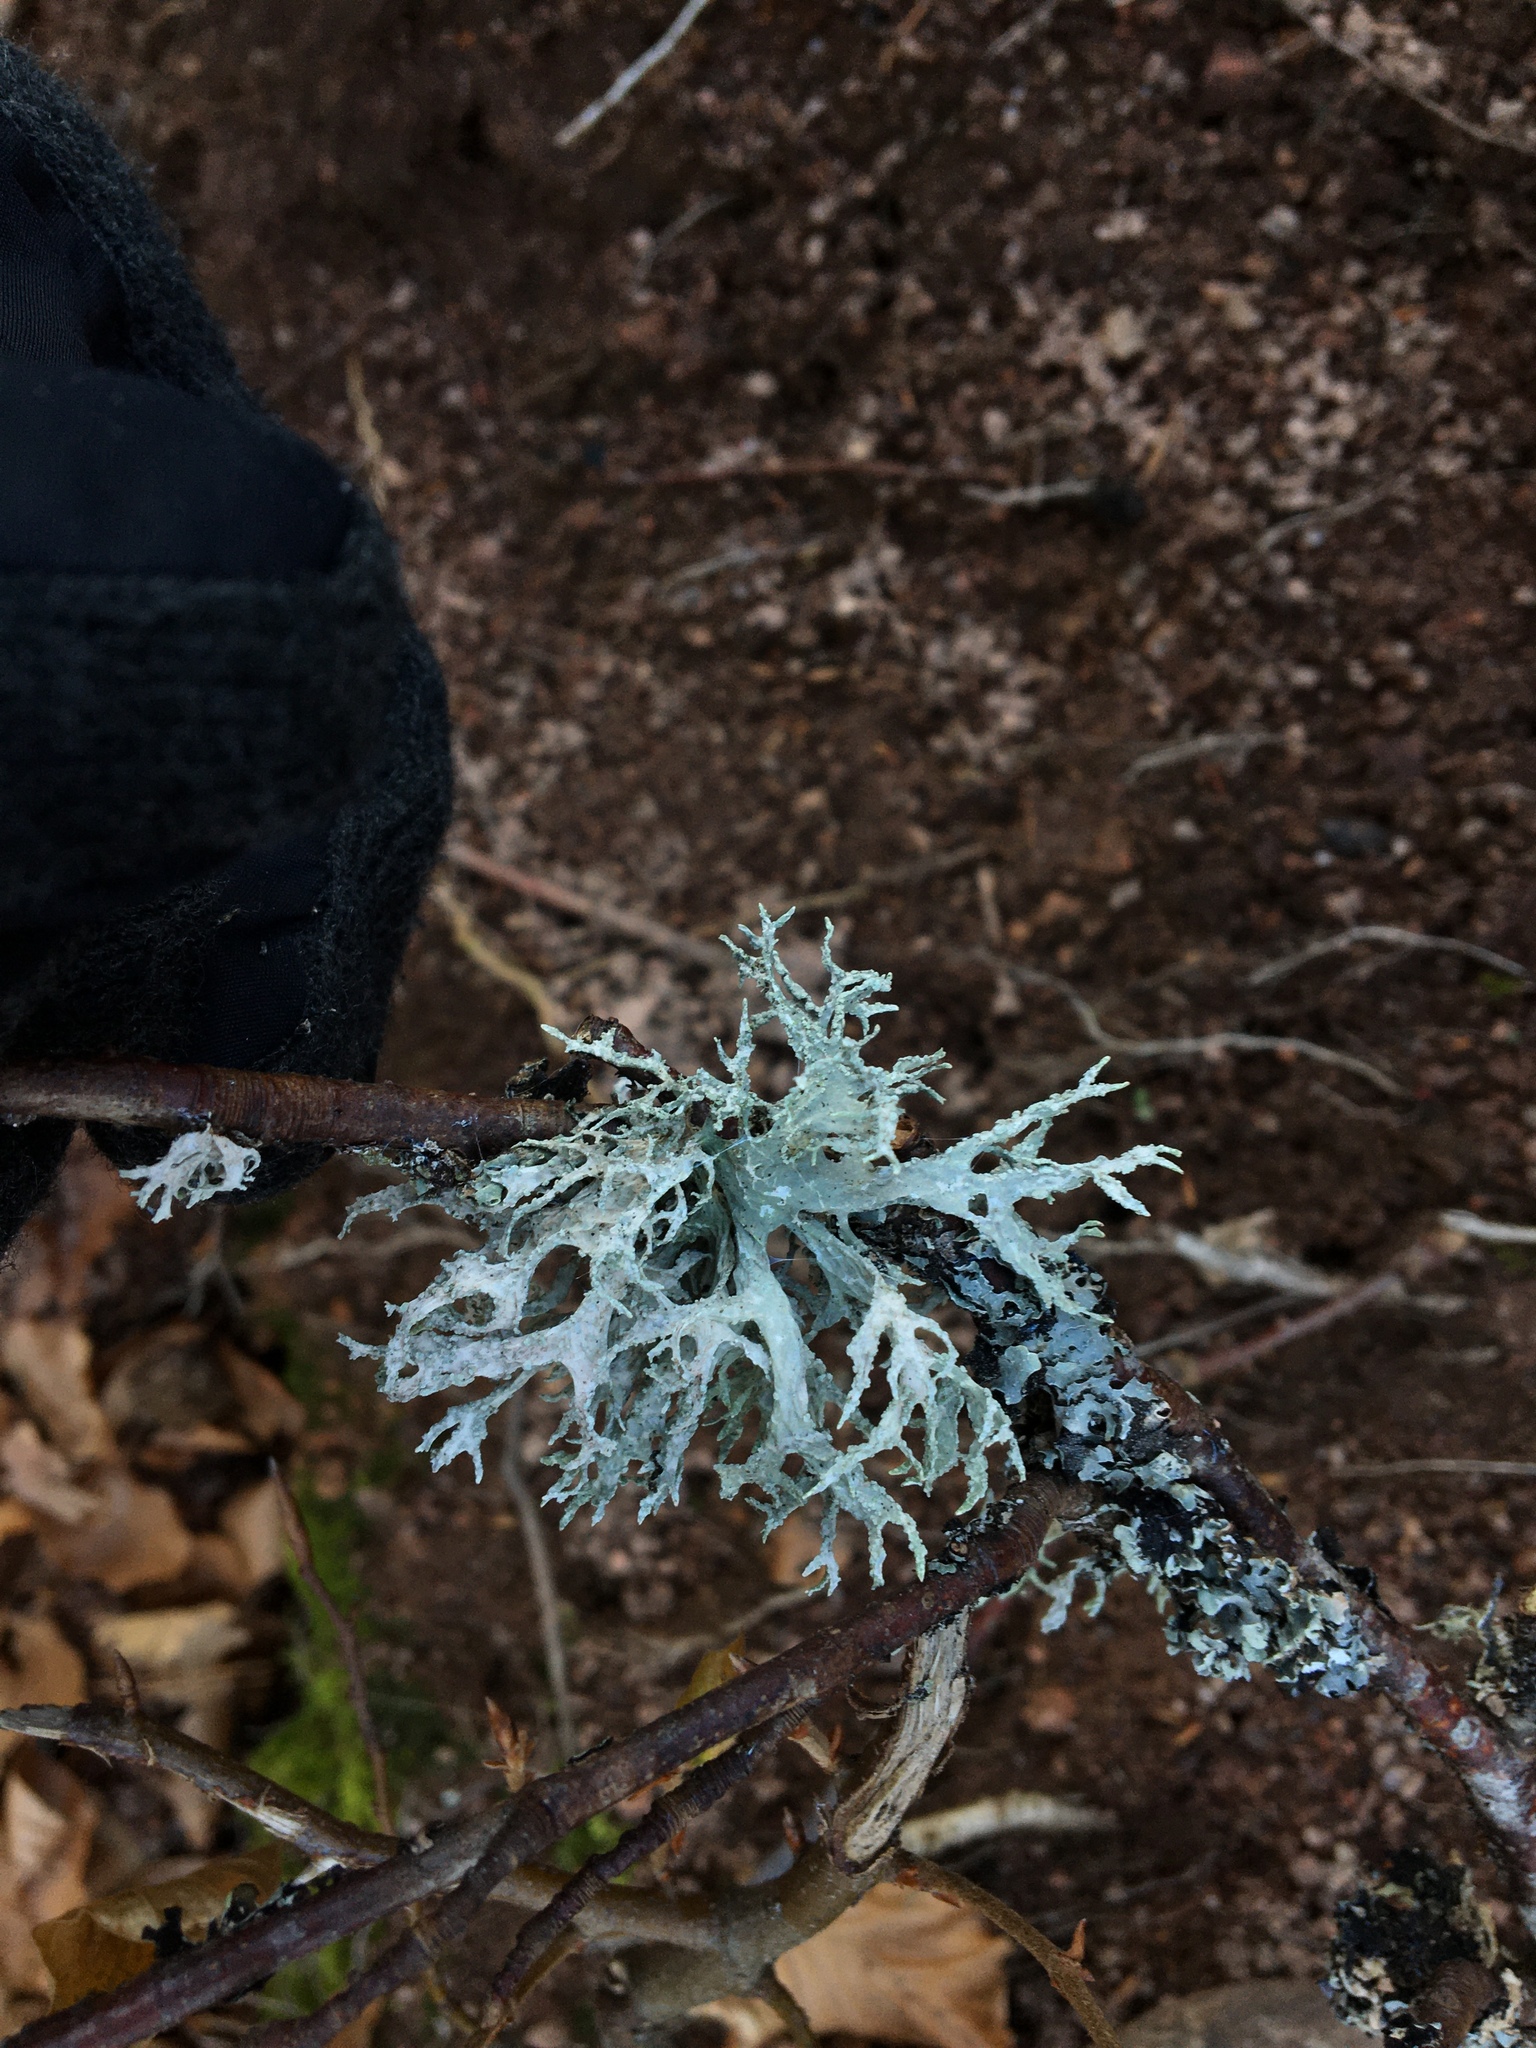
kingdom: Fungi
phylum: Ascomycota
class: Lecanoromycetes
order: Lecanorales
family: Parmeliaceae
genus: Evernia
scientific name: Evernia prunastri
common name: Oak moss
